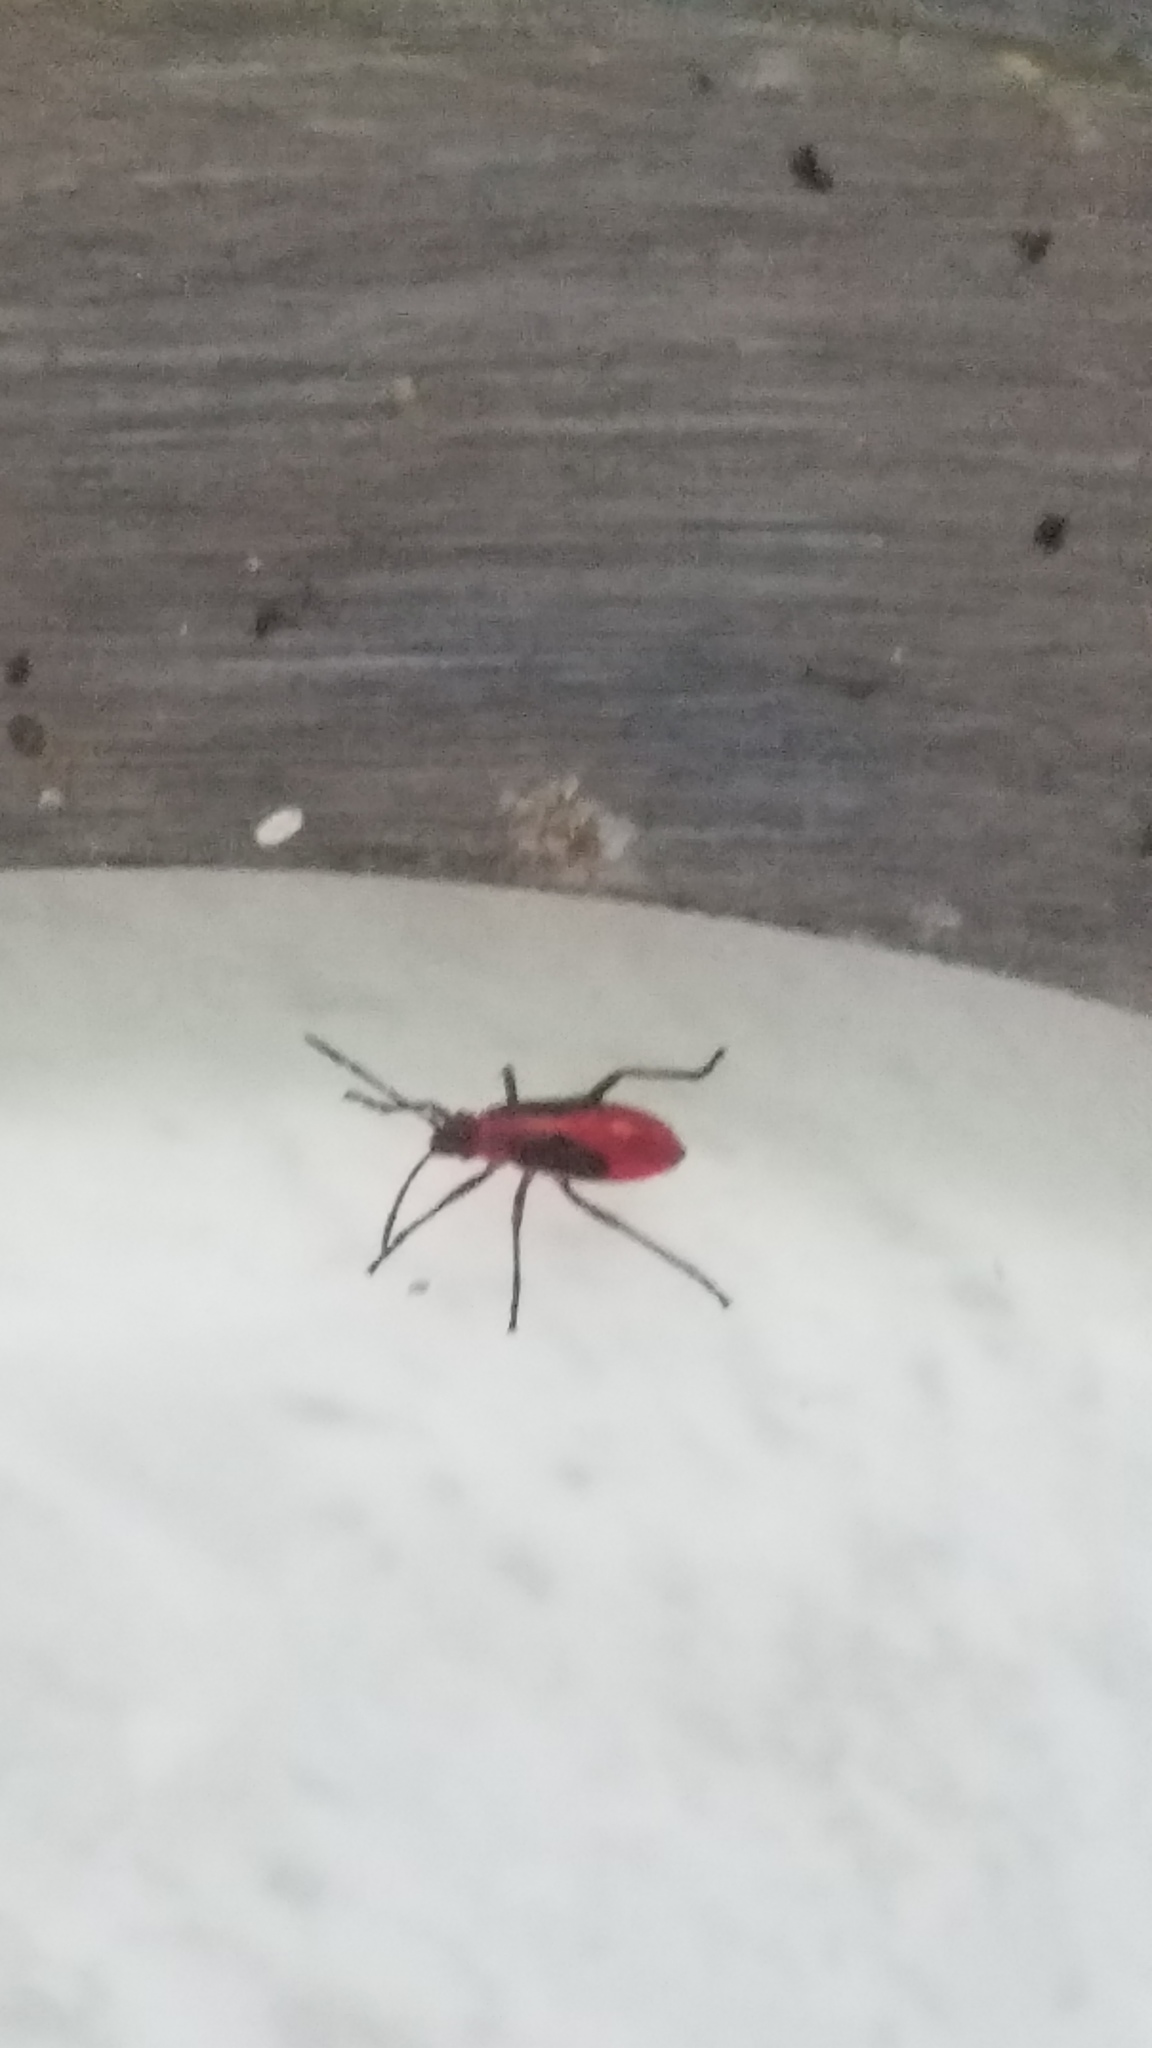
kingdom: Animalia
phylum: Arthropoda
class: Insecta
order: Hemiptera
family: Rhopalidae
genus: Boisea
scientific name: Boisea trivittata
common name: Boxelder bug
